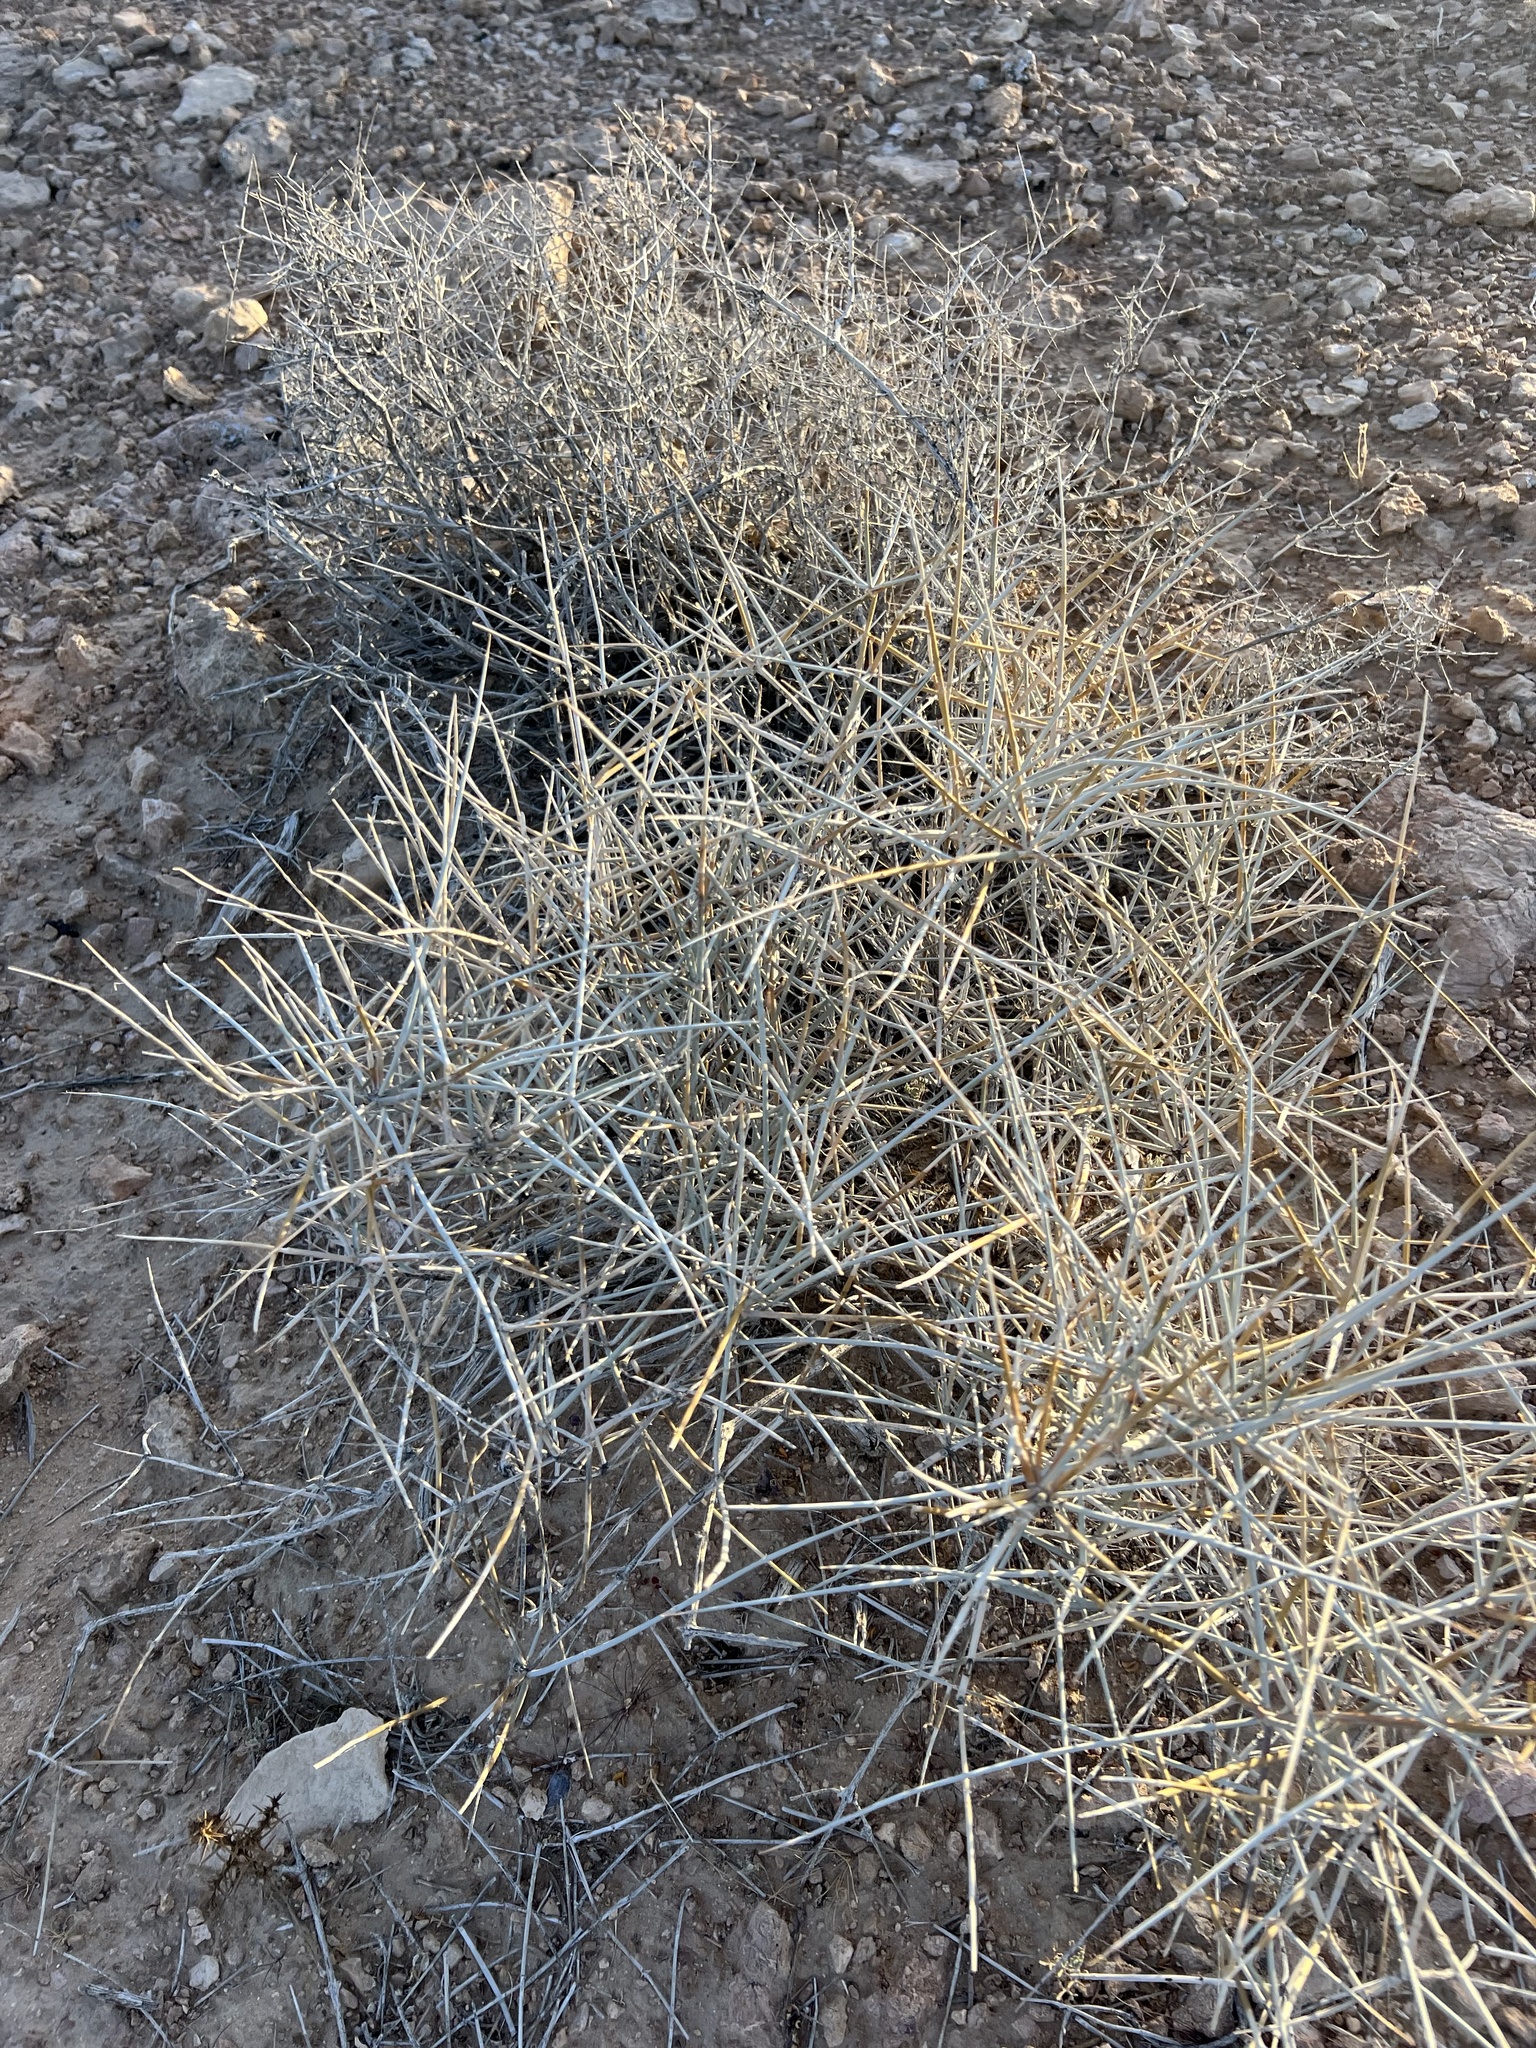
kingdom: Plantae
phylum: Tracheophyta
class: Gnetopsida
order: Ephedrales
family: Ephedraceae
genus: Ephedra
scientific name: Ephedra nevadensis
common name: Gray ephedra
